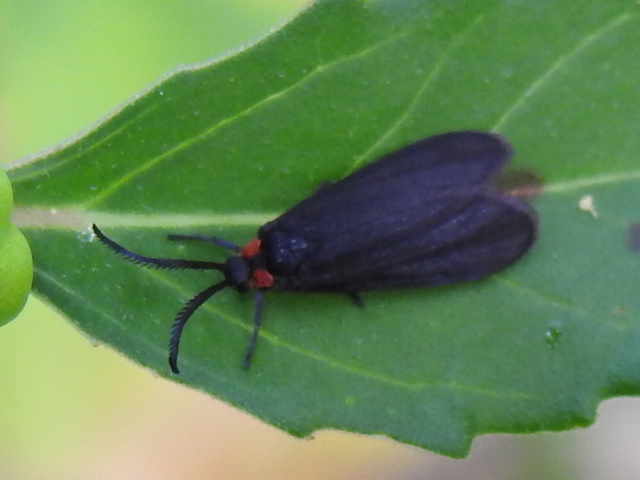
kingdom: Animalia
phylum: Arthropoda
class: Insecta
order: Lepidoptera
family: Zygaenidae
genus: Acoloithus
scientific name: Acoloithus falsarius
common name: Clemens' false skeletonizer
